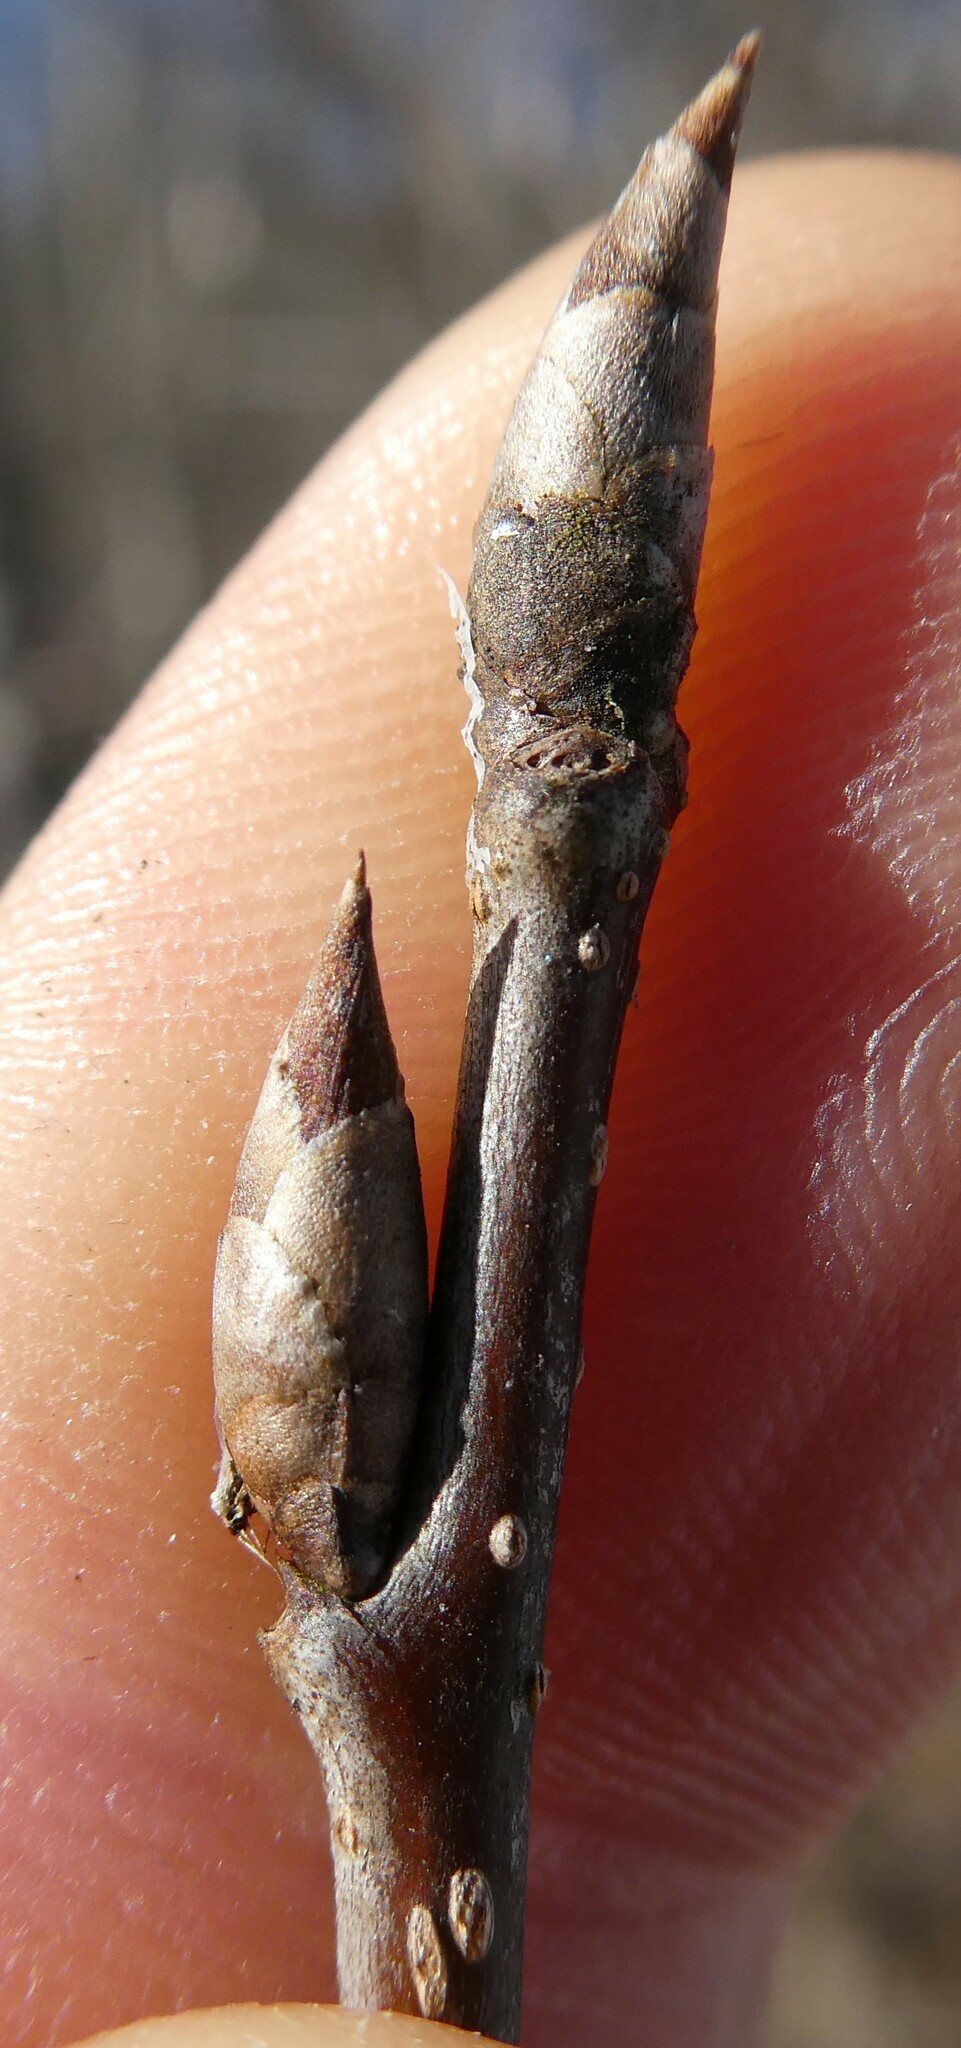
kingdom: Plantae
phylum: Tracheophyta
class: Magnoliopsida
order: Rosales
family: Rosaceae
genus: Prunus
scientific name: Prunus virginiana
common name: Chokecherry
